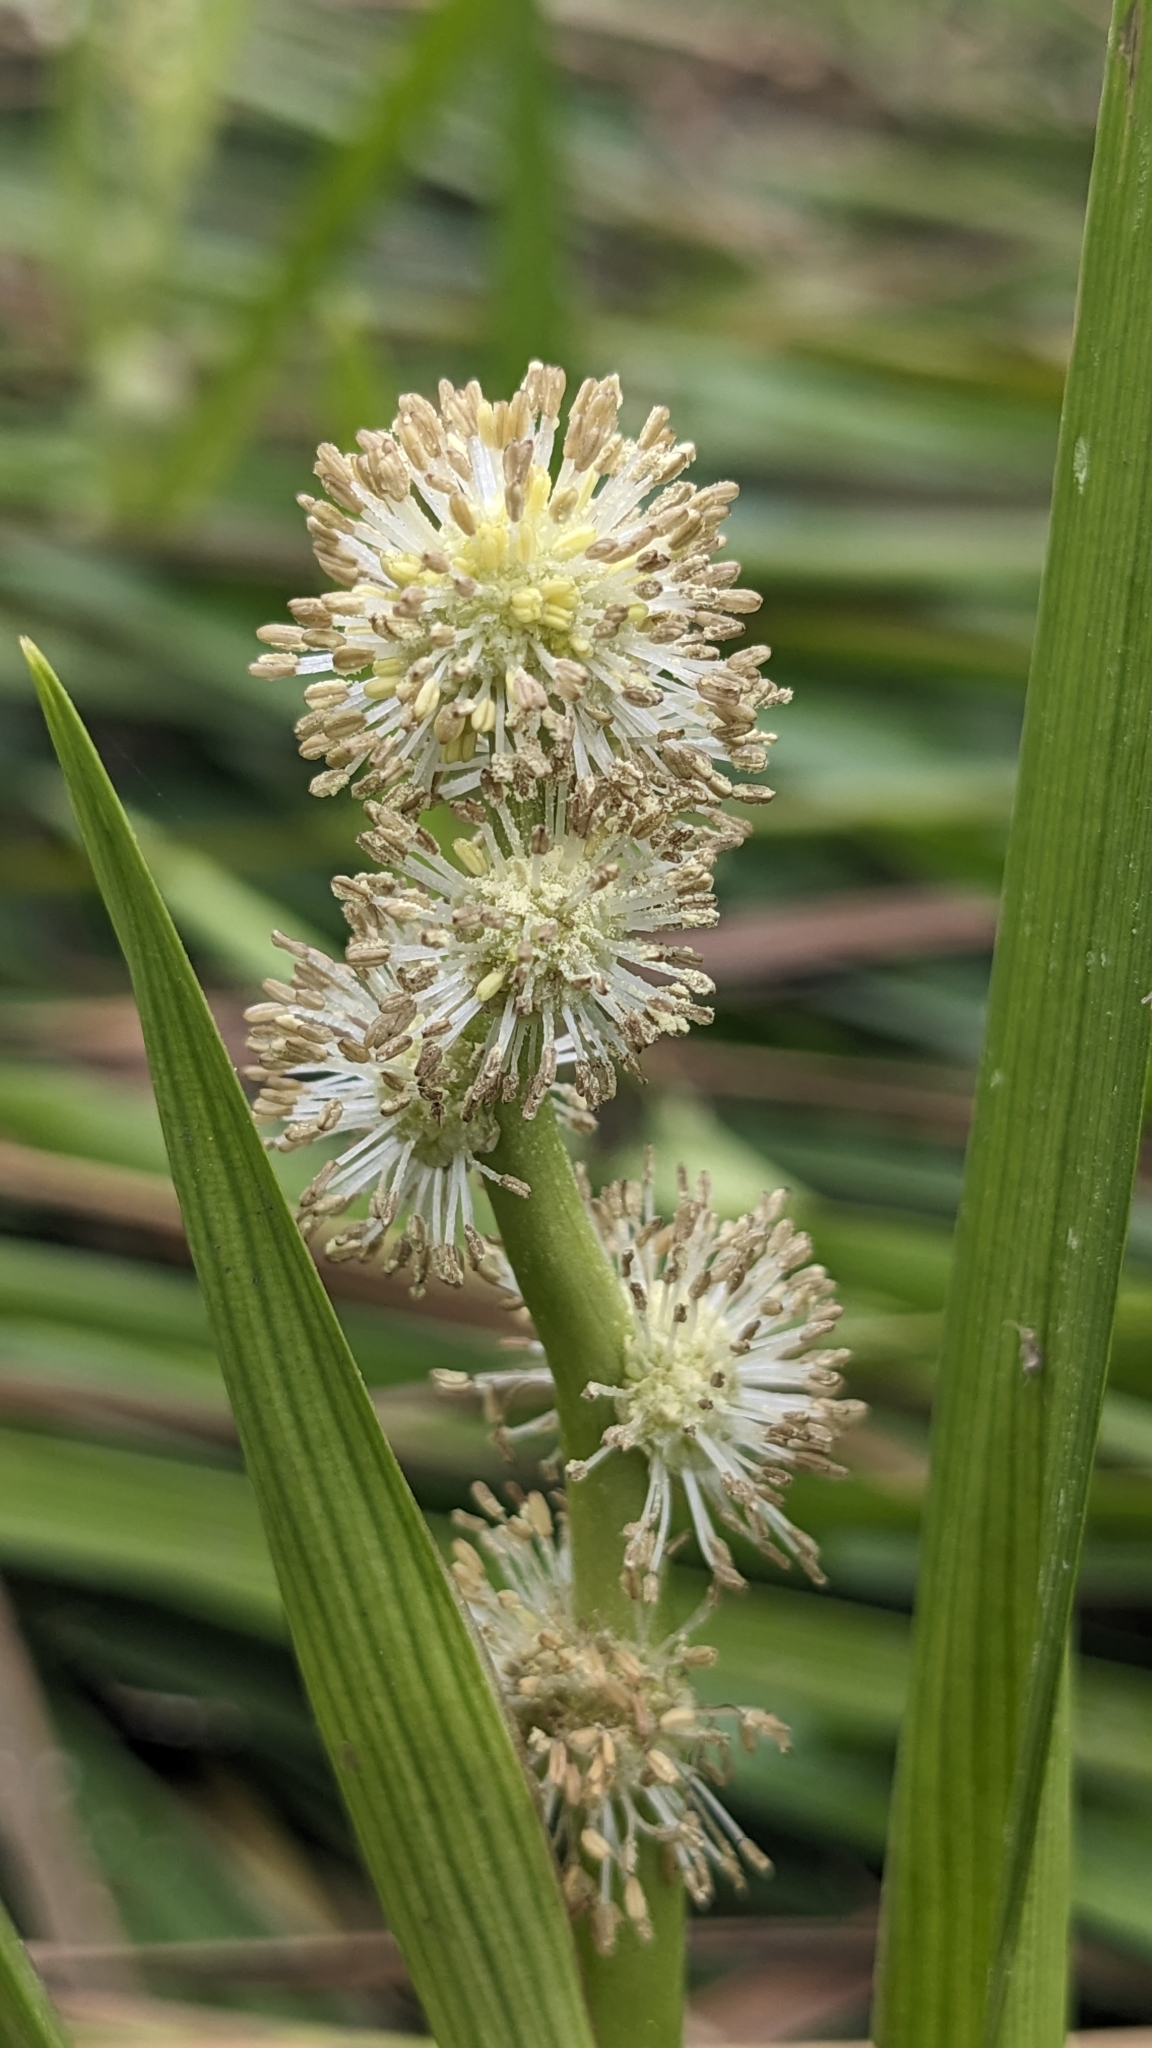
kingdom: Plantae
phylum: Tracheophyta
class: Liliopsida
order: Poales
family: Typhaceae
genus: Sparganium
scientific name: Sparganium fallax
